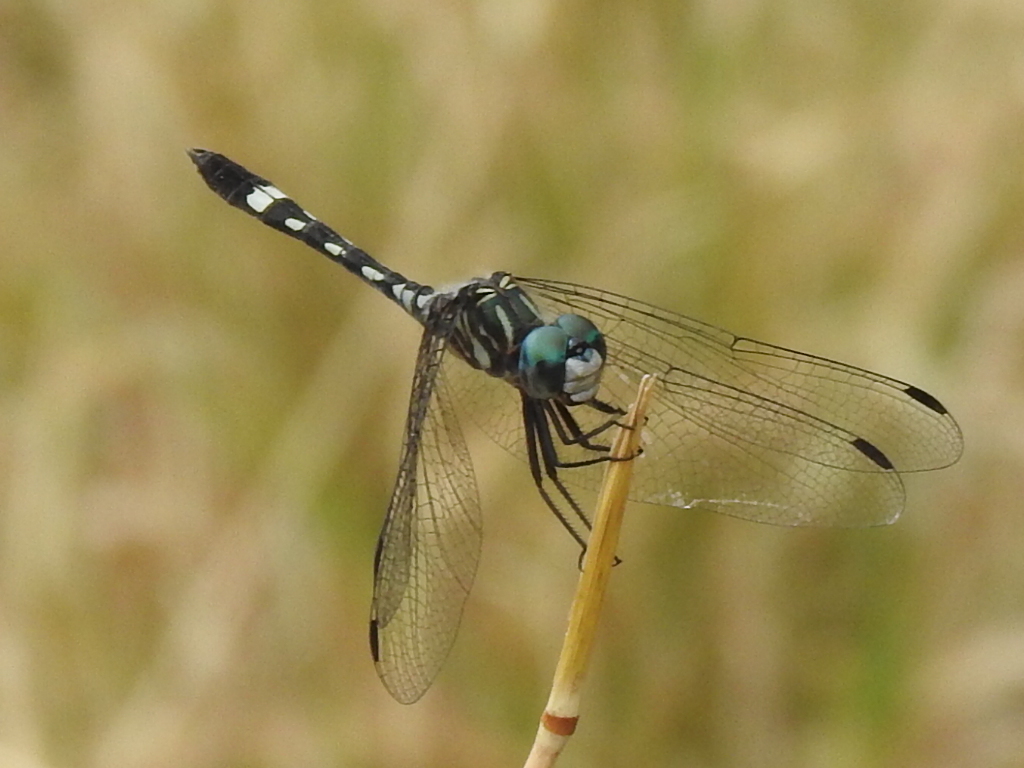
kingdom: Animalia
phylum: Arthropoda
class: Insecta
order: Odonata
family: Libellulidae
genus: Micrathyria
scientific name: Micrathyria hagenii
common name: Thornbush dasher
